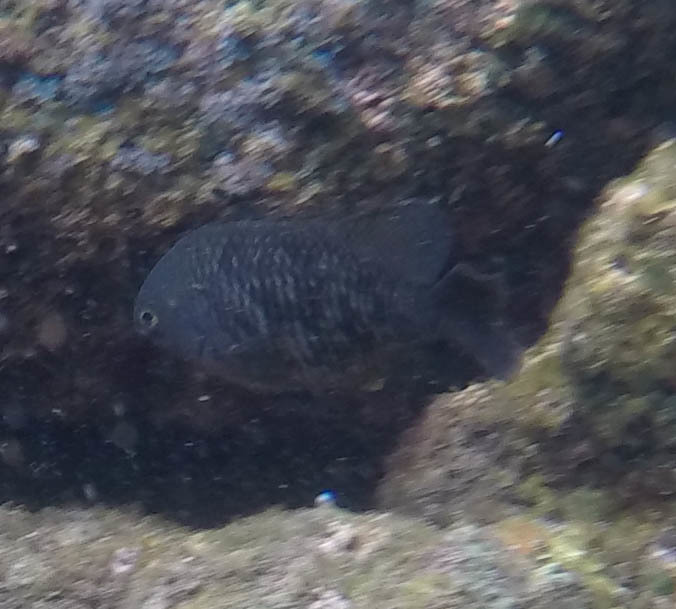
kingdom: Animalia
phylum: Chordata
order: Perciformes
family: Pomacentridae
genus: Stegastes
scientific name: Stegastes fasciolatus
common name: Pacific gregory
